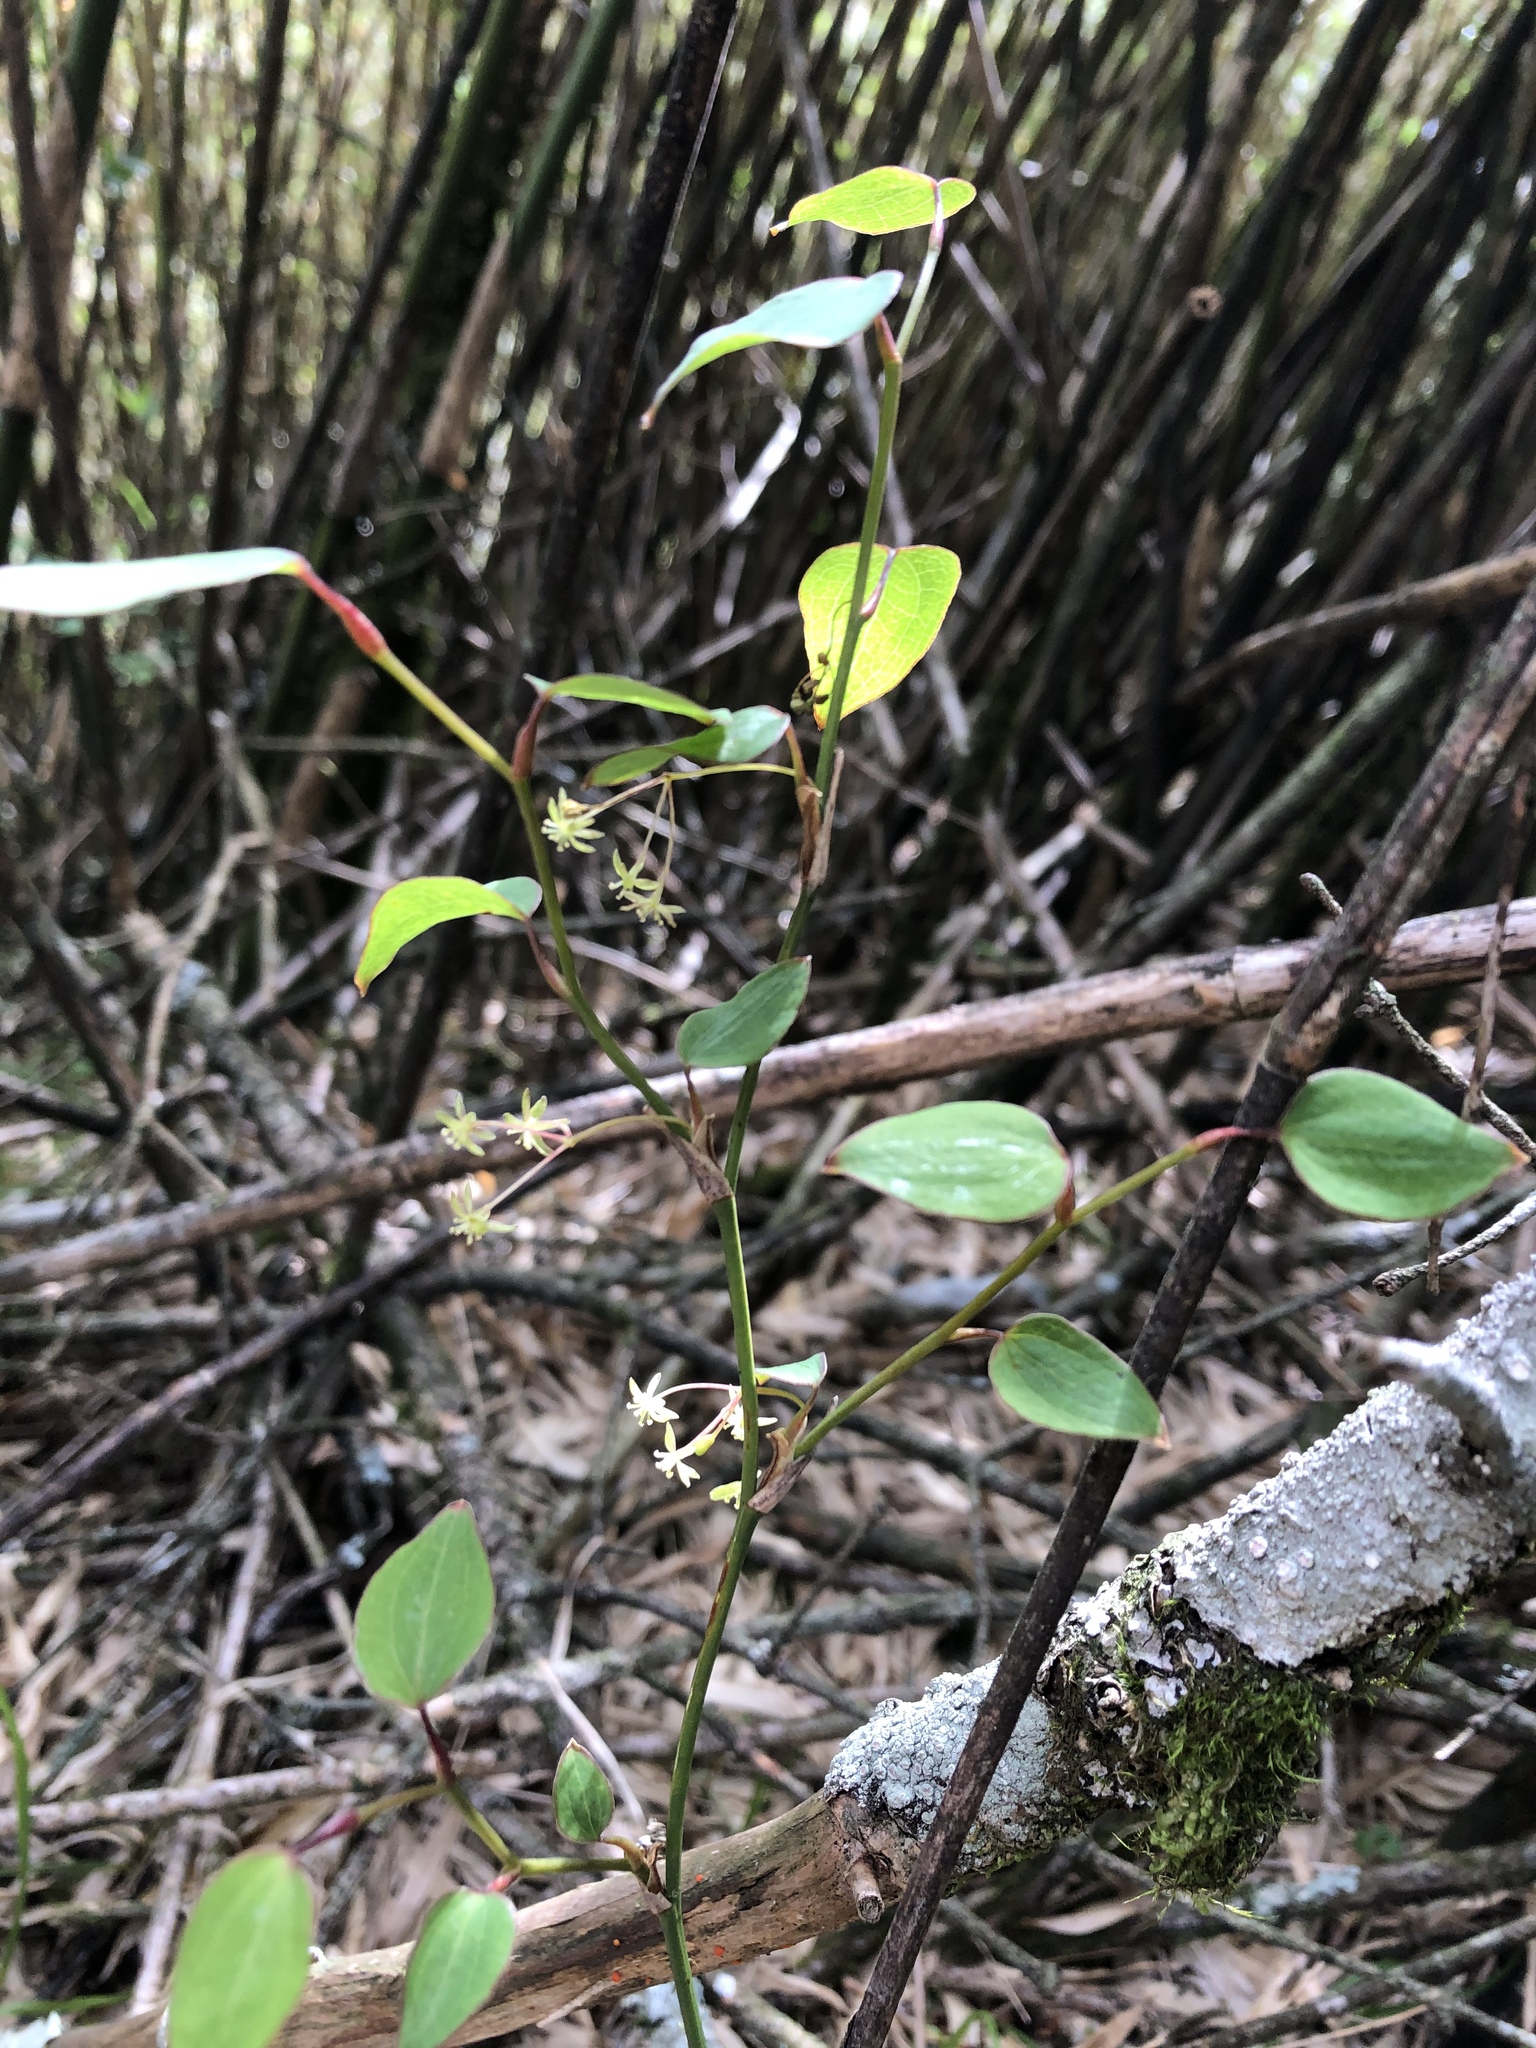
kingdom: Plantae
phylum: Tracheophyta
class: Liliopsida
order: Liliales
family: Smilacaceae
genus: Smilax
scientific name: Smilax vaginata
